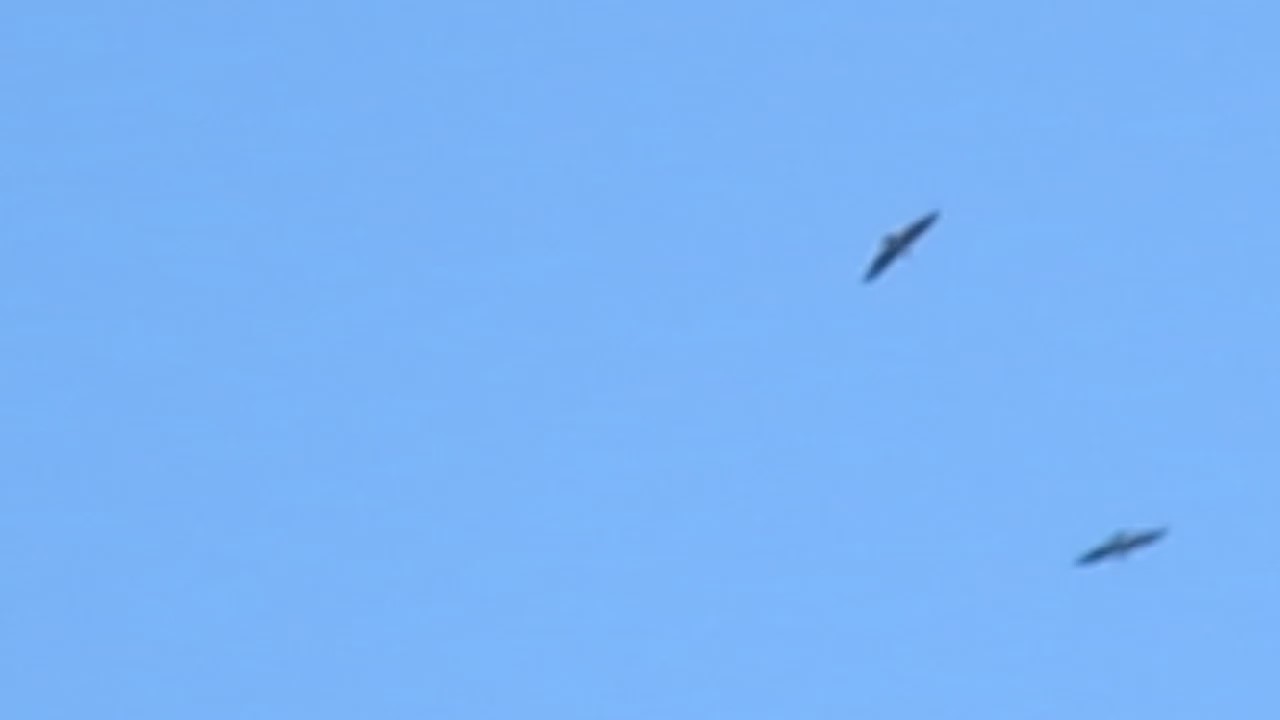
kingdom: Animalia
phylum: Chordata
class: Aves
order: Accipitriformes
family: Accipitridae
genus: Haliaeetus
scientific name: Haliaeetus leucocephalus
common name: Bald eagle
